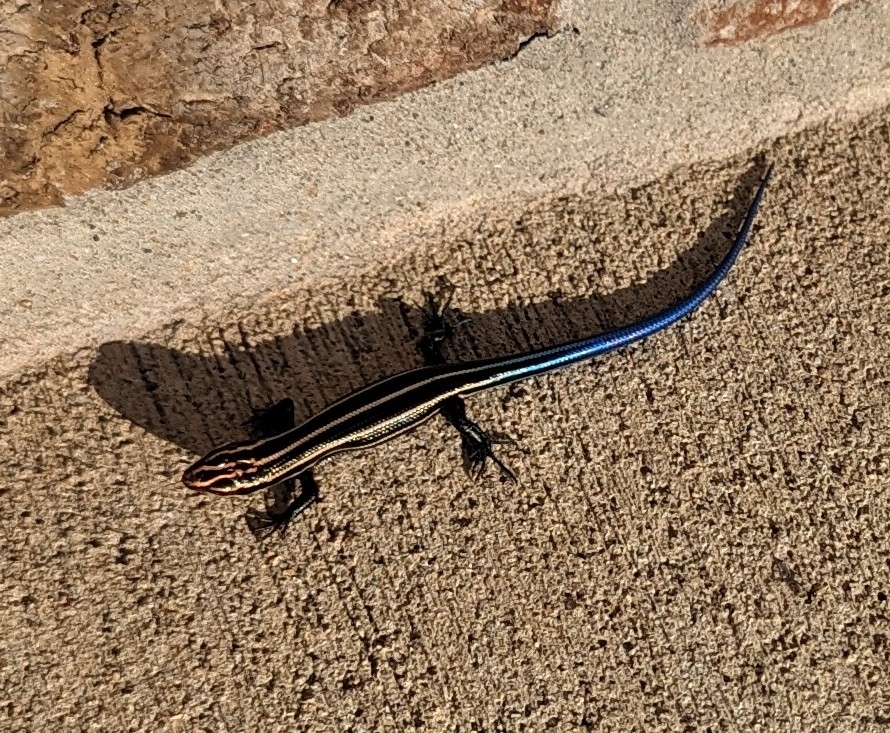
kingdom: Animalia
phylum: Chordata
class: Squamata
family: Scincidae
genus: Plestiodon
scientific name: Plestiodon fasciatus
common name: Five-lined skink
